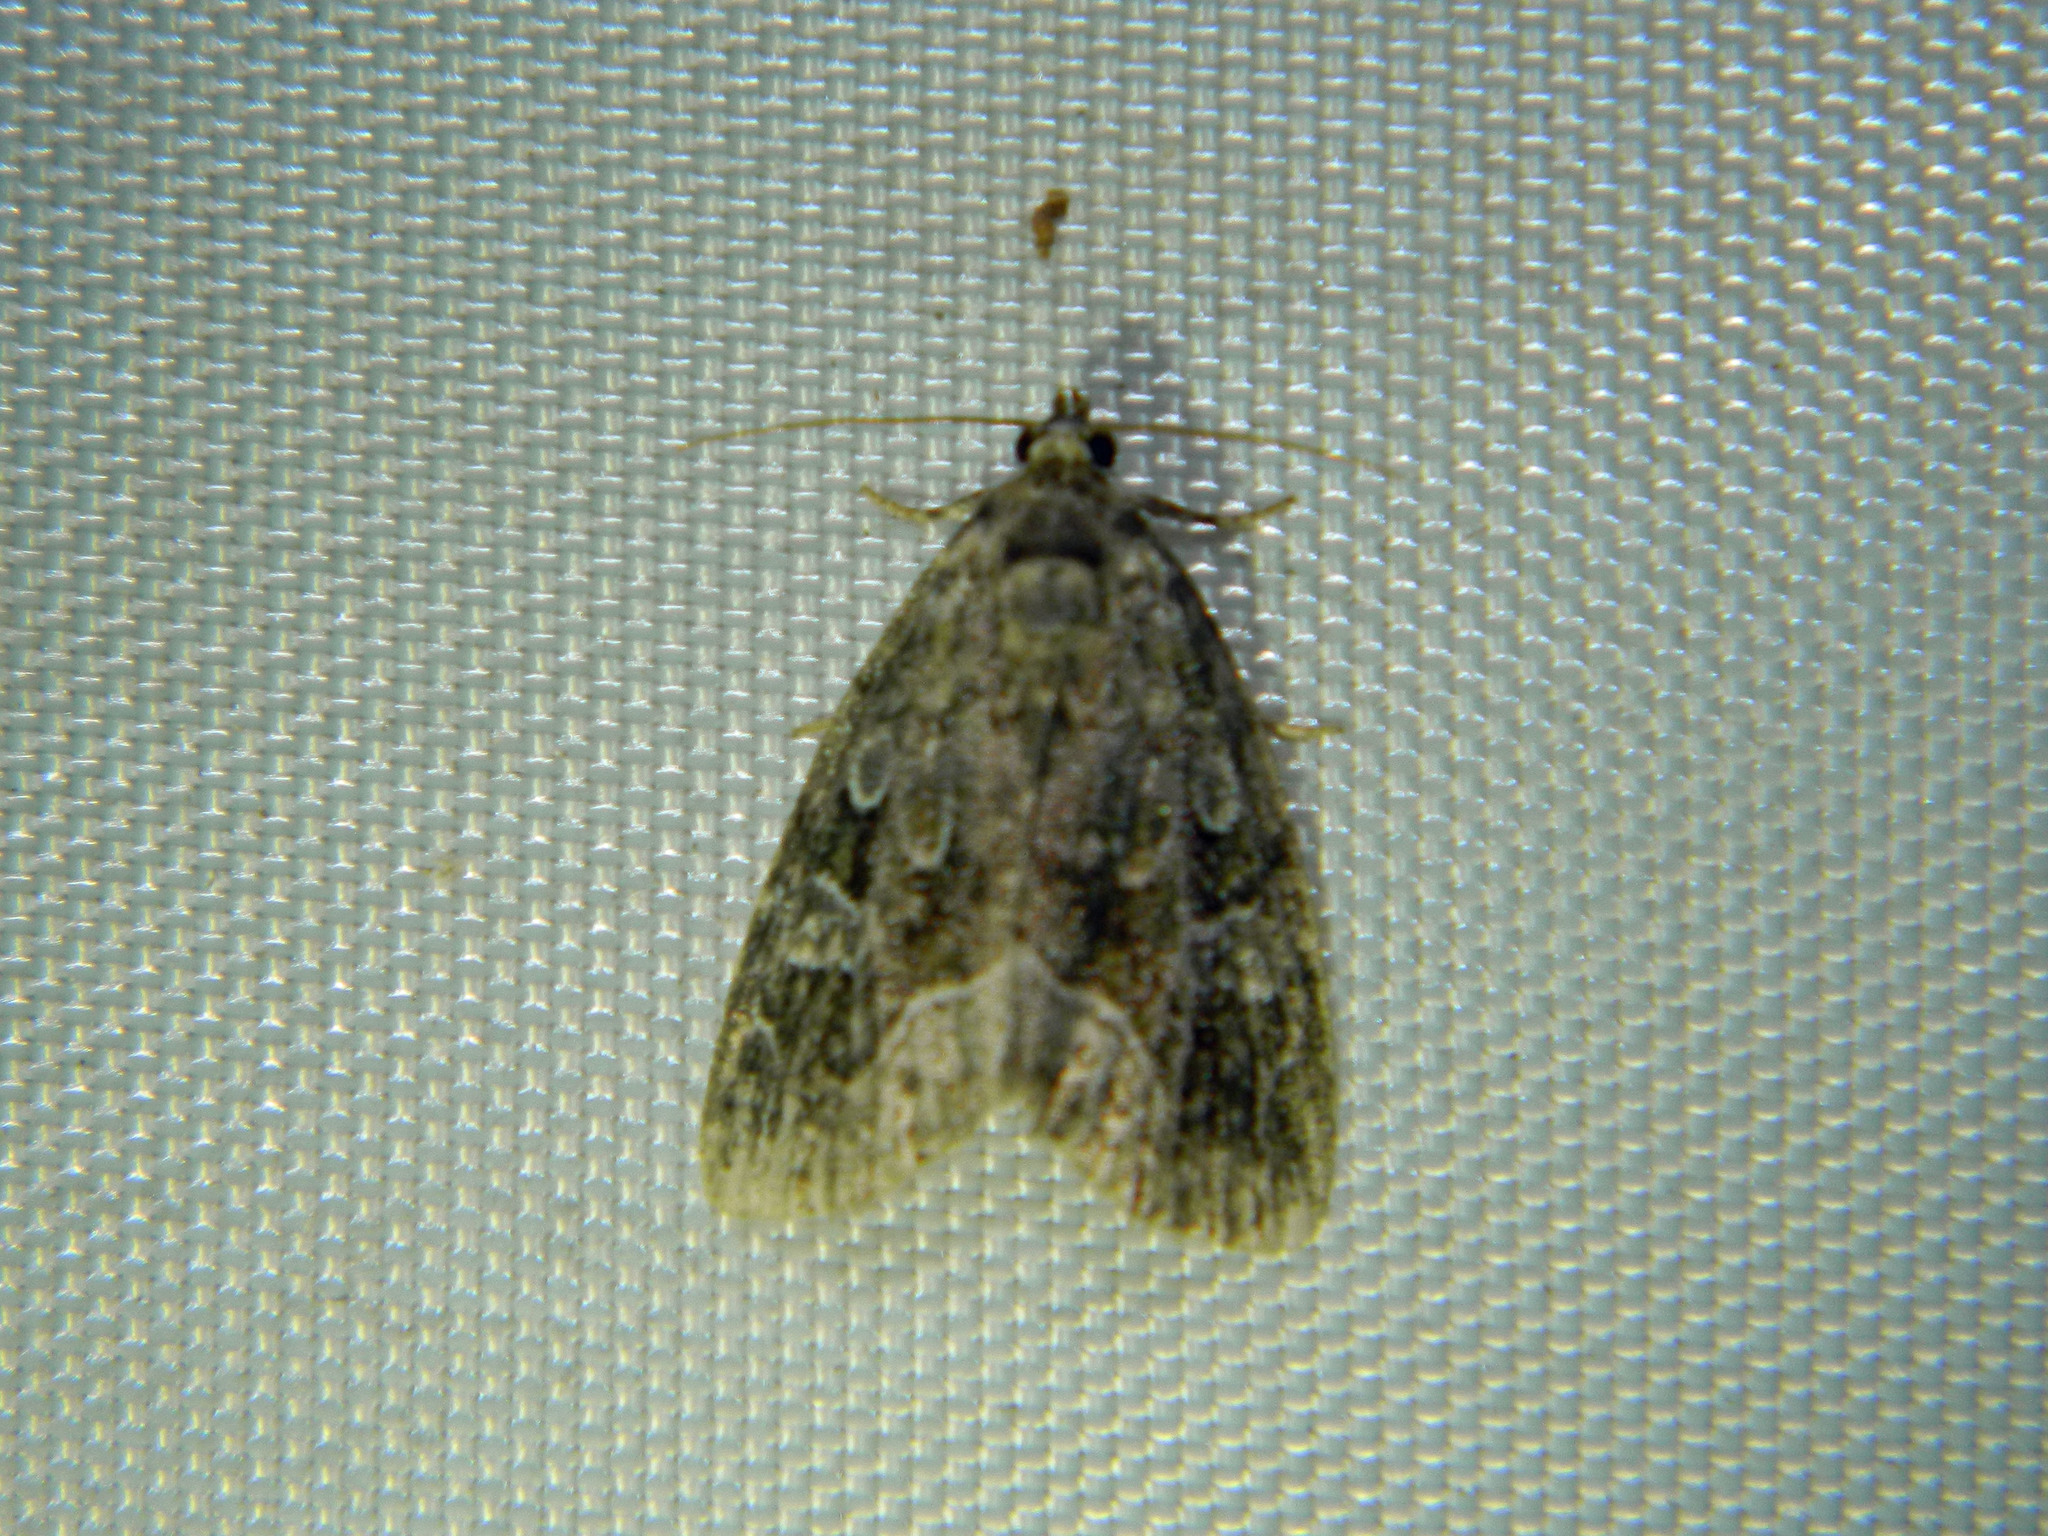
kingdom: Animalia
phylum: Arthropoda
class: Insecta
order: Lepidoptera
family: Noctuidae
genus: Protodeltote
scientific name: Protodeltote muscosula
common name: Large mossy glyph
